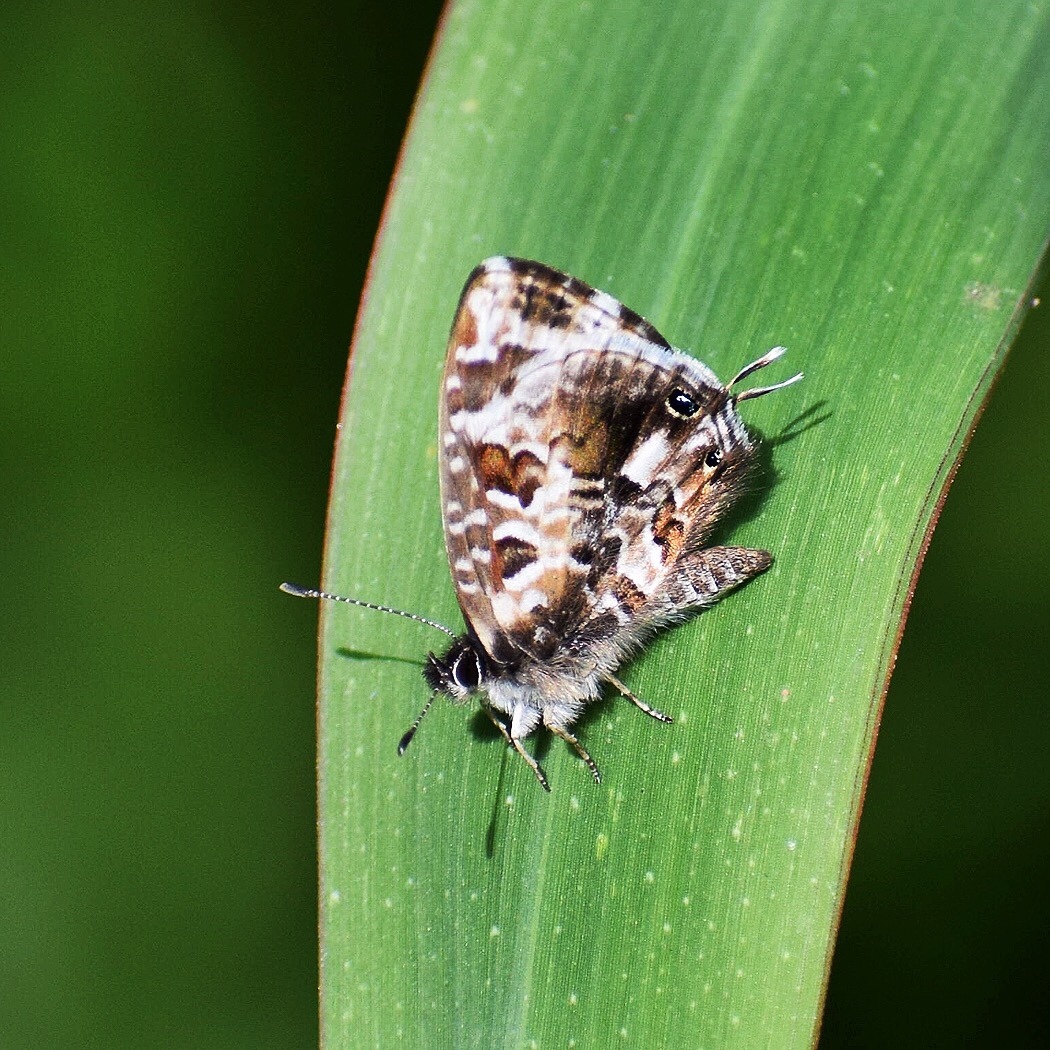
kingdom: Animalia
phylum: Arthropoda
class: Insecta
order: Lepidoptera
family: Lycaenidae
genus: Cacyreus
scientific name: Cacyreus lingeus
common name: Bush bronze
